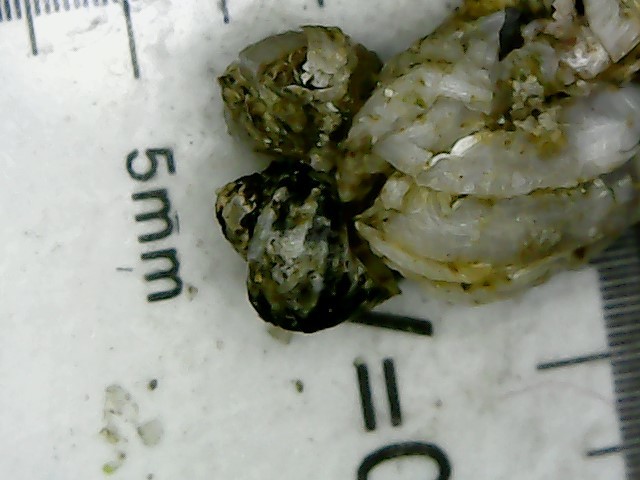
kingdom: Animalia
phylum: Mollusca
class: Gastropoda
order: Littorinimorpha
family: Littorinidae
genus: Littorina
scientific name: Littorina saxatilis
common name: Black-lined periwinkle
